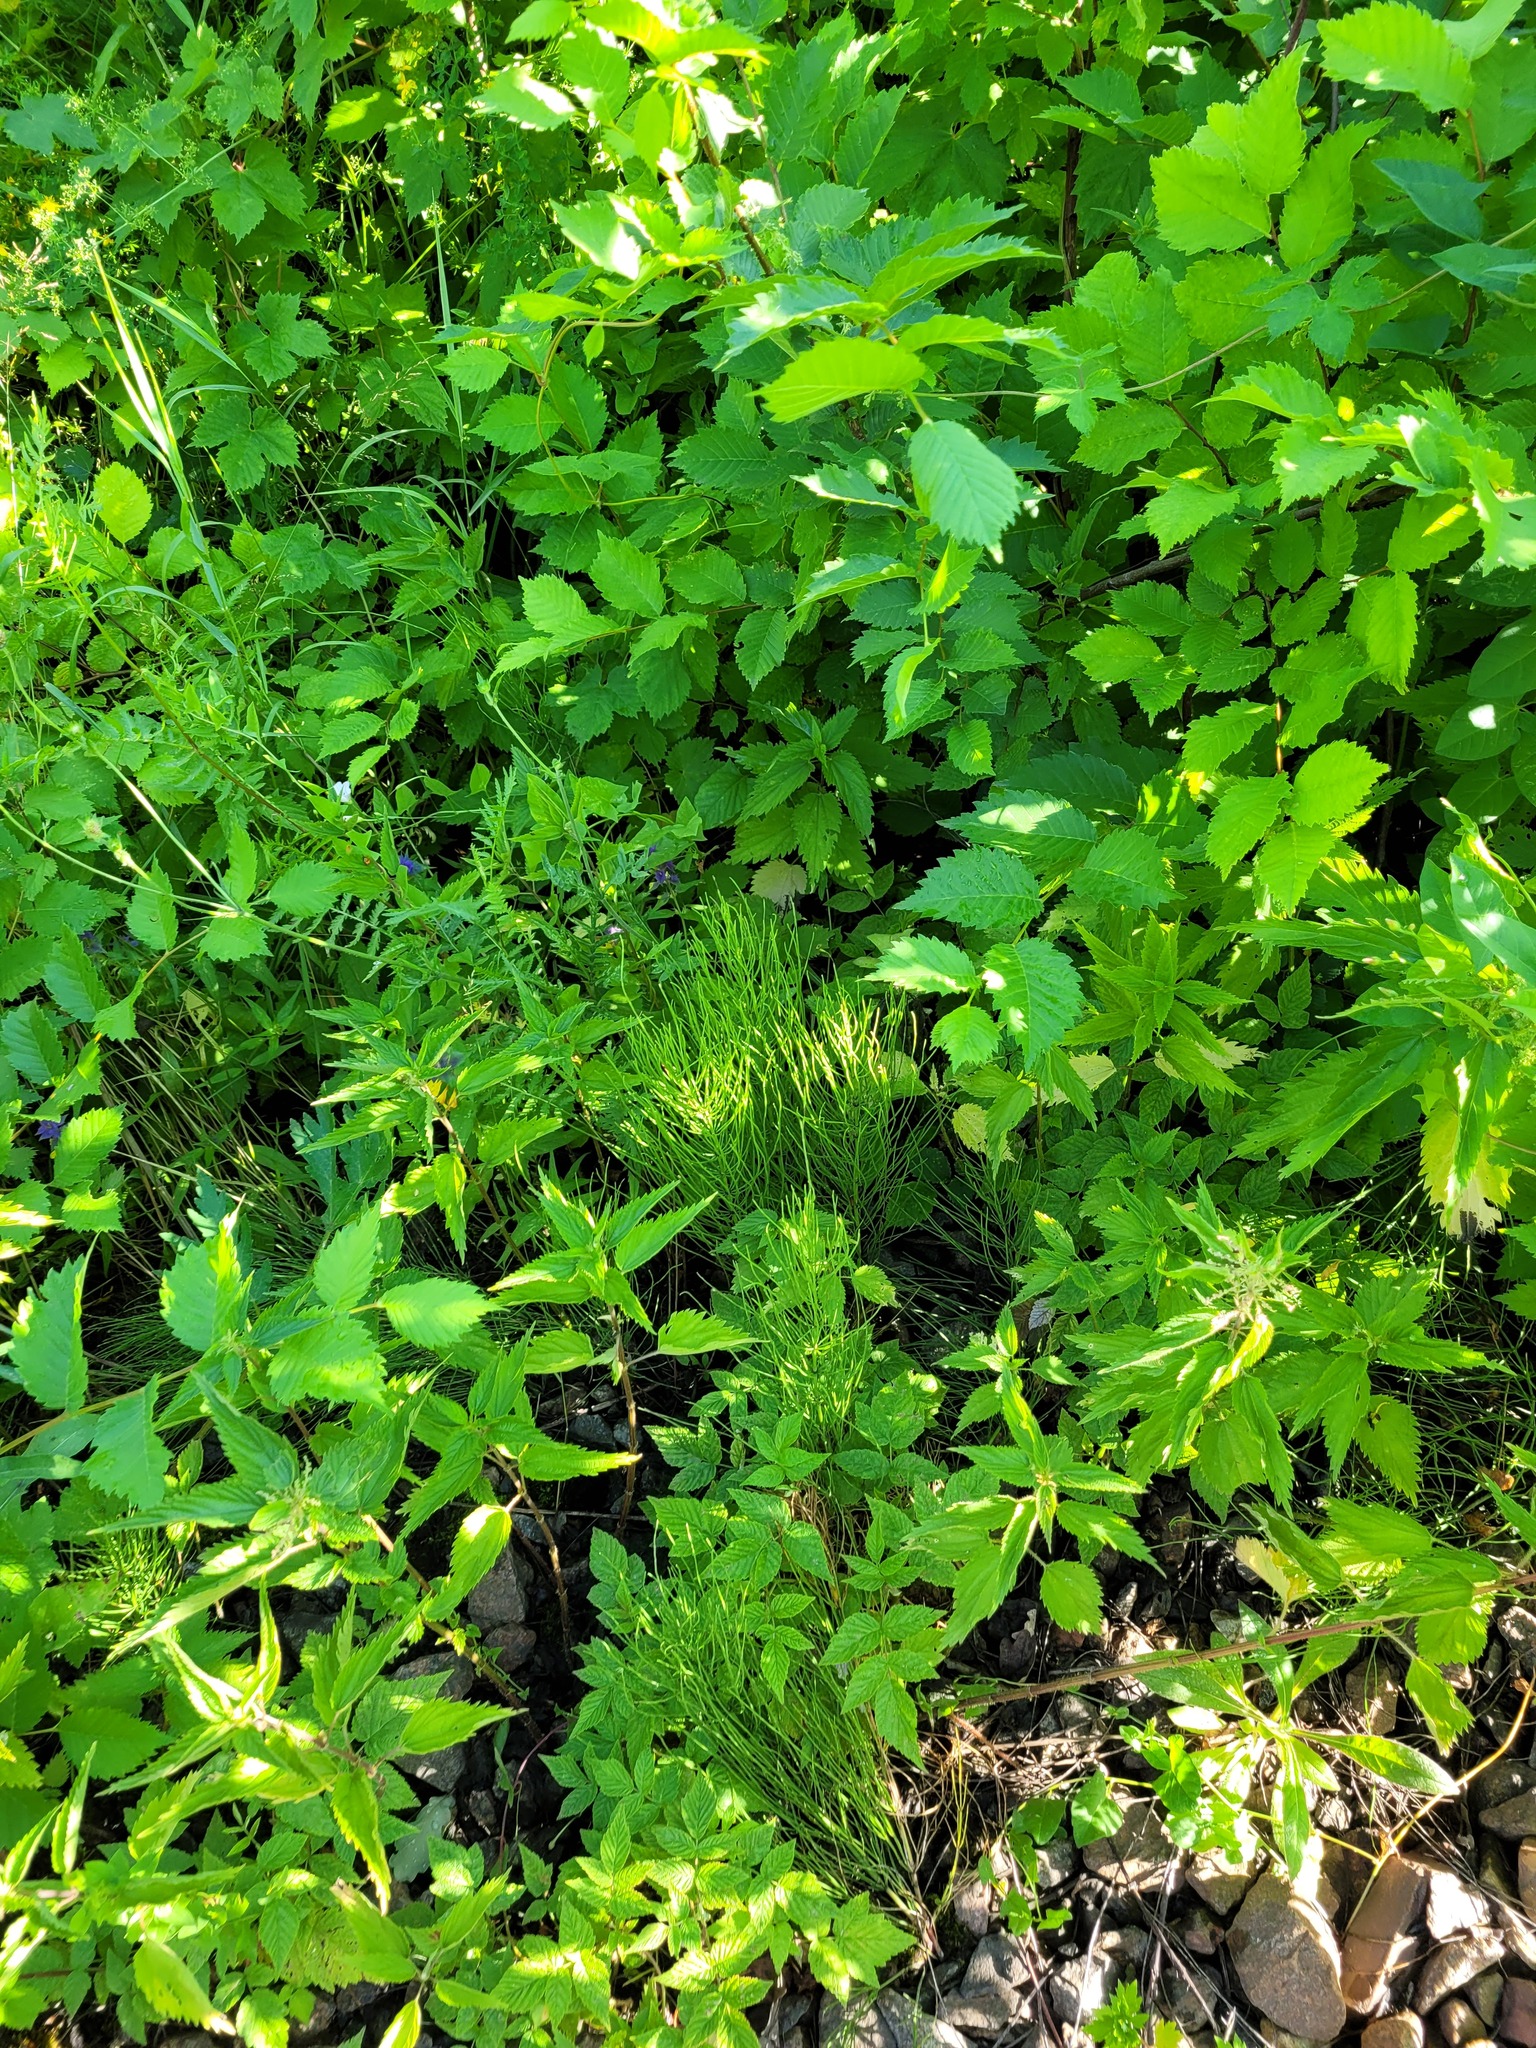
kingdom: Plantae
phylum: Tracheophyta
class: Polypodiopsida
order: Equisetales
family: Equisetaceae
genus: Equisetum
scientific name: Equisetum arvense
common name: Field horsetail
